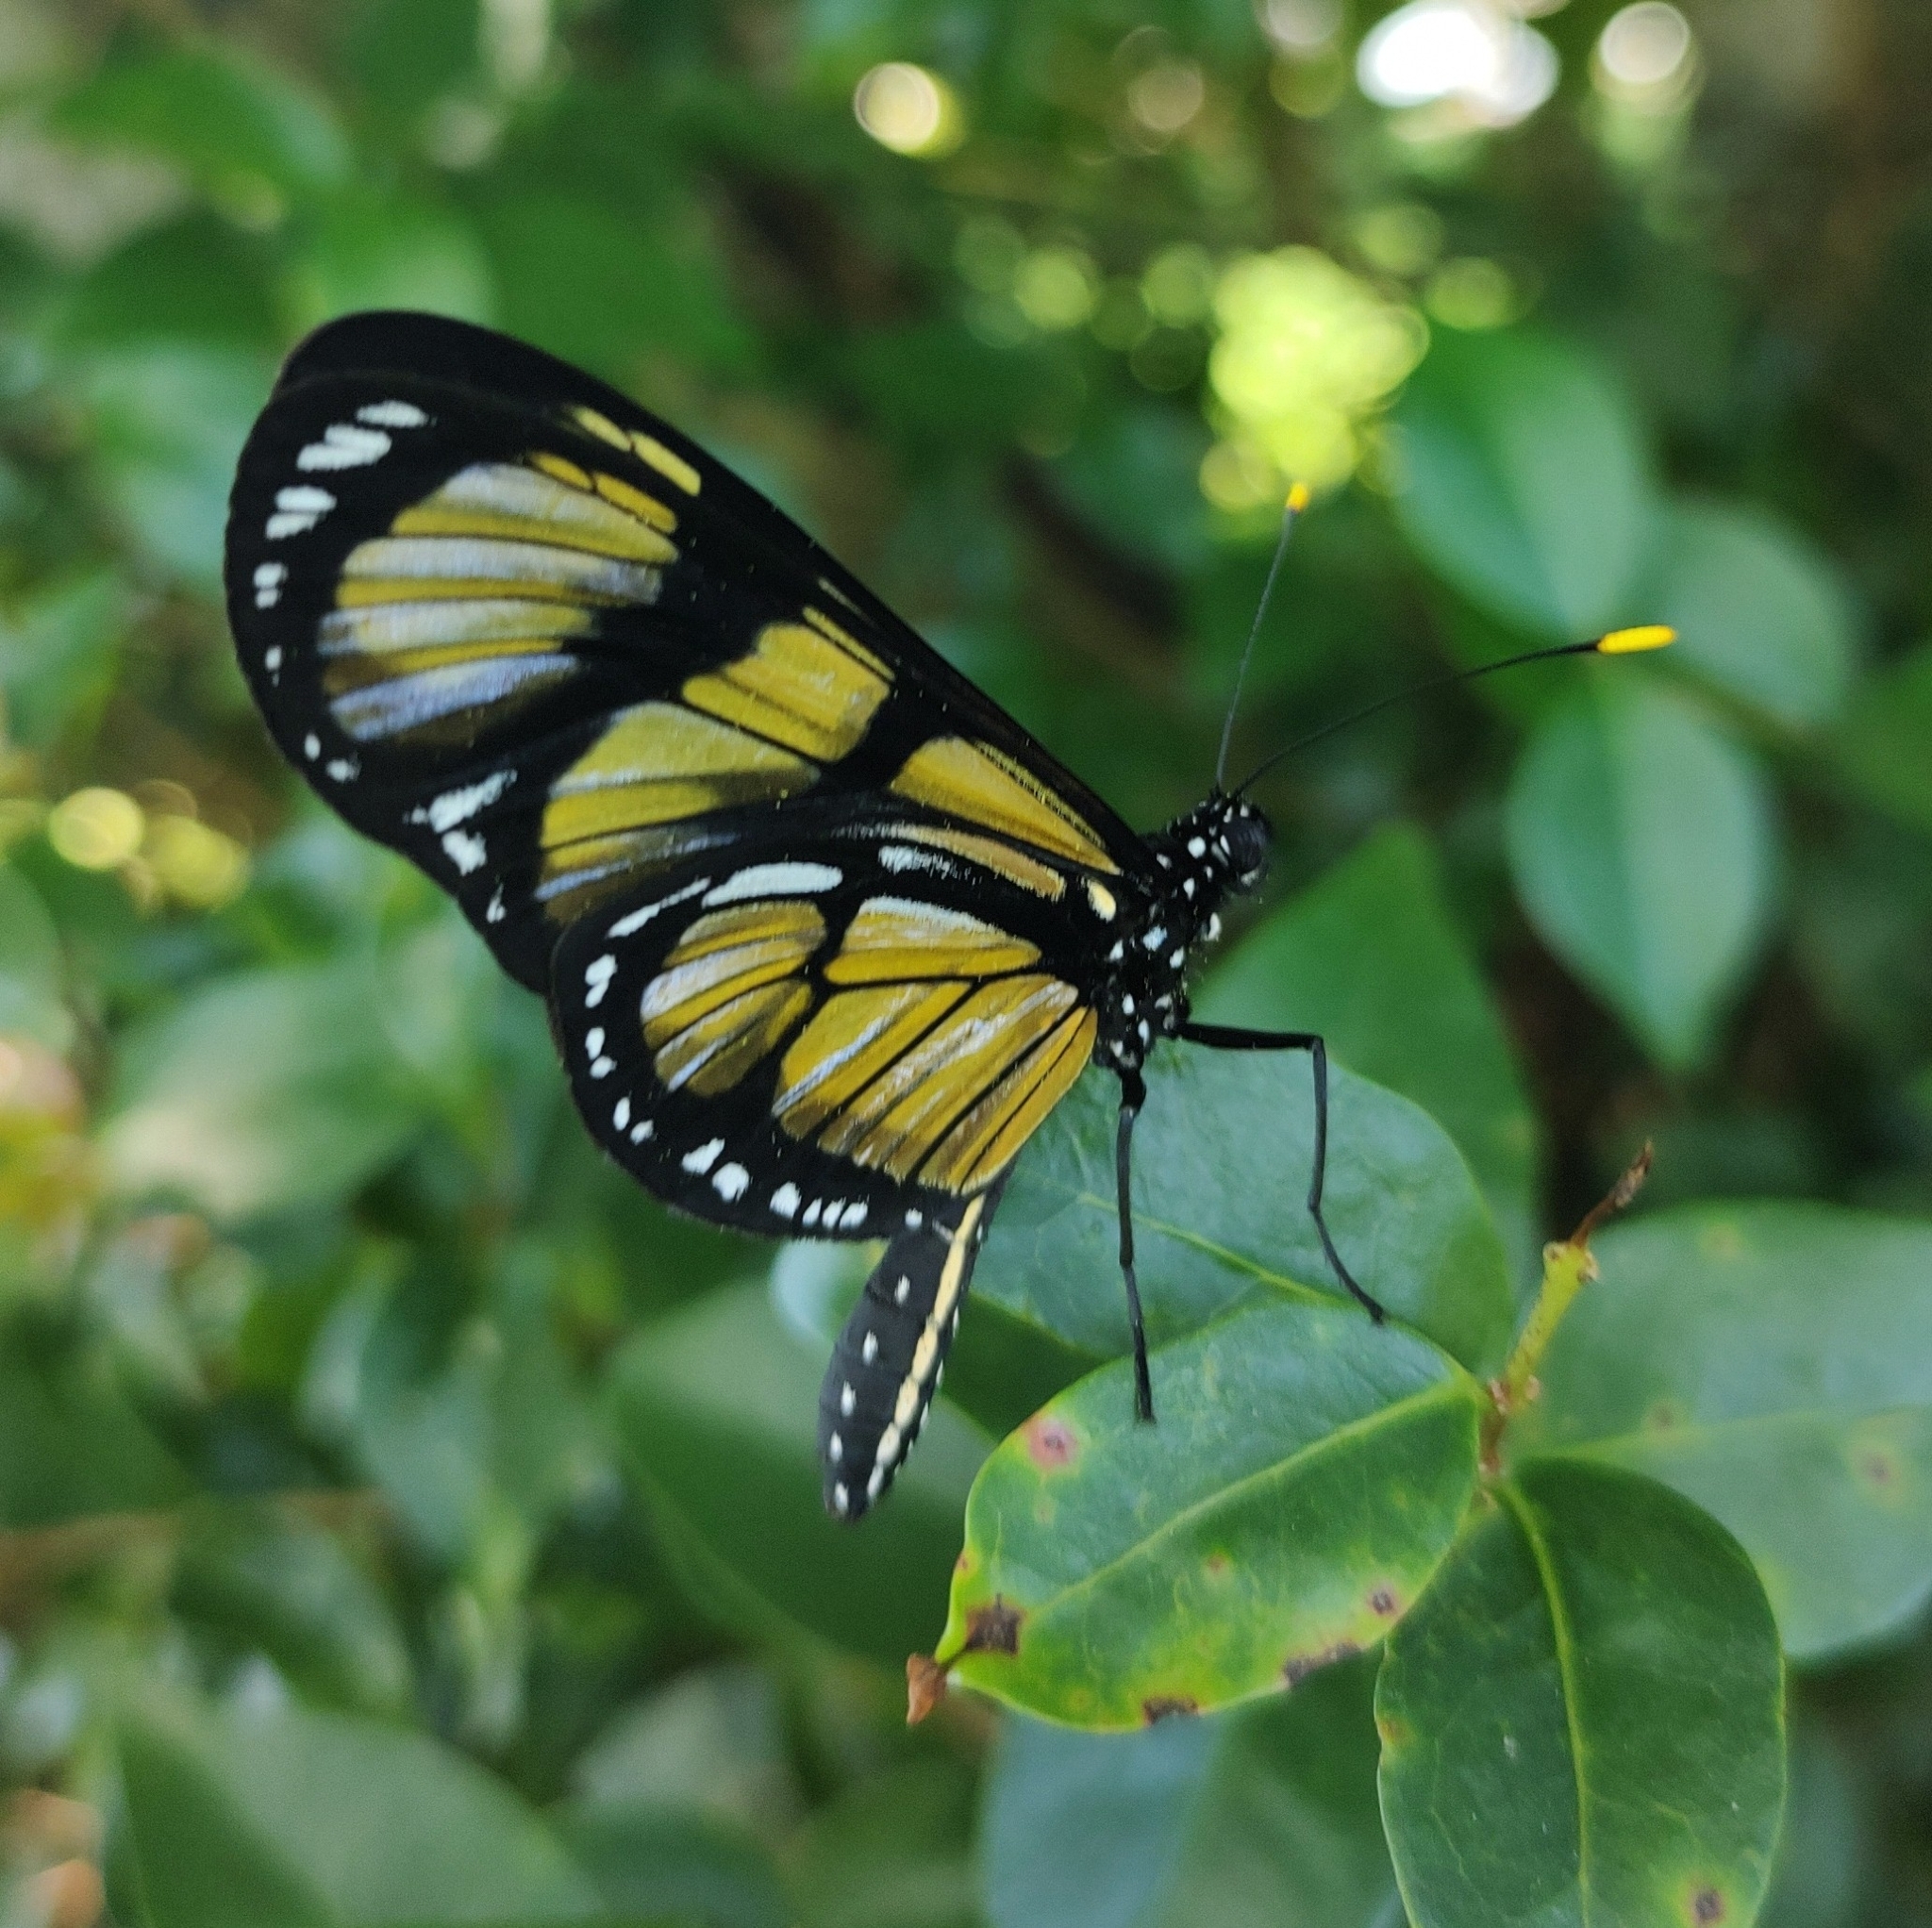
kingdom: Animalia
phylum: Arthropoda
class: Insecta
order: Lepidoptera
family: Nymphalidae
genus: Methona
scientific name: Methona themisto
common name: Themisto amberwing
